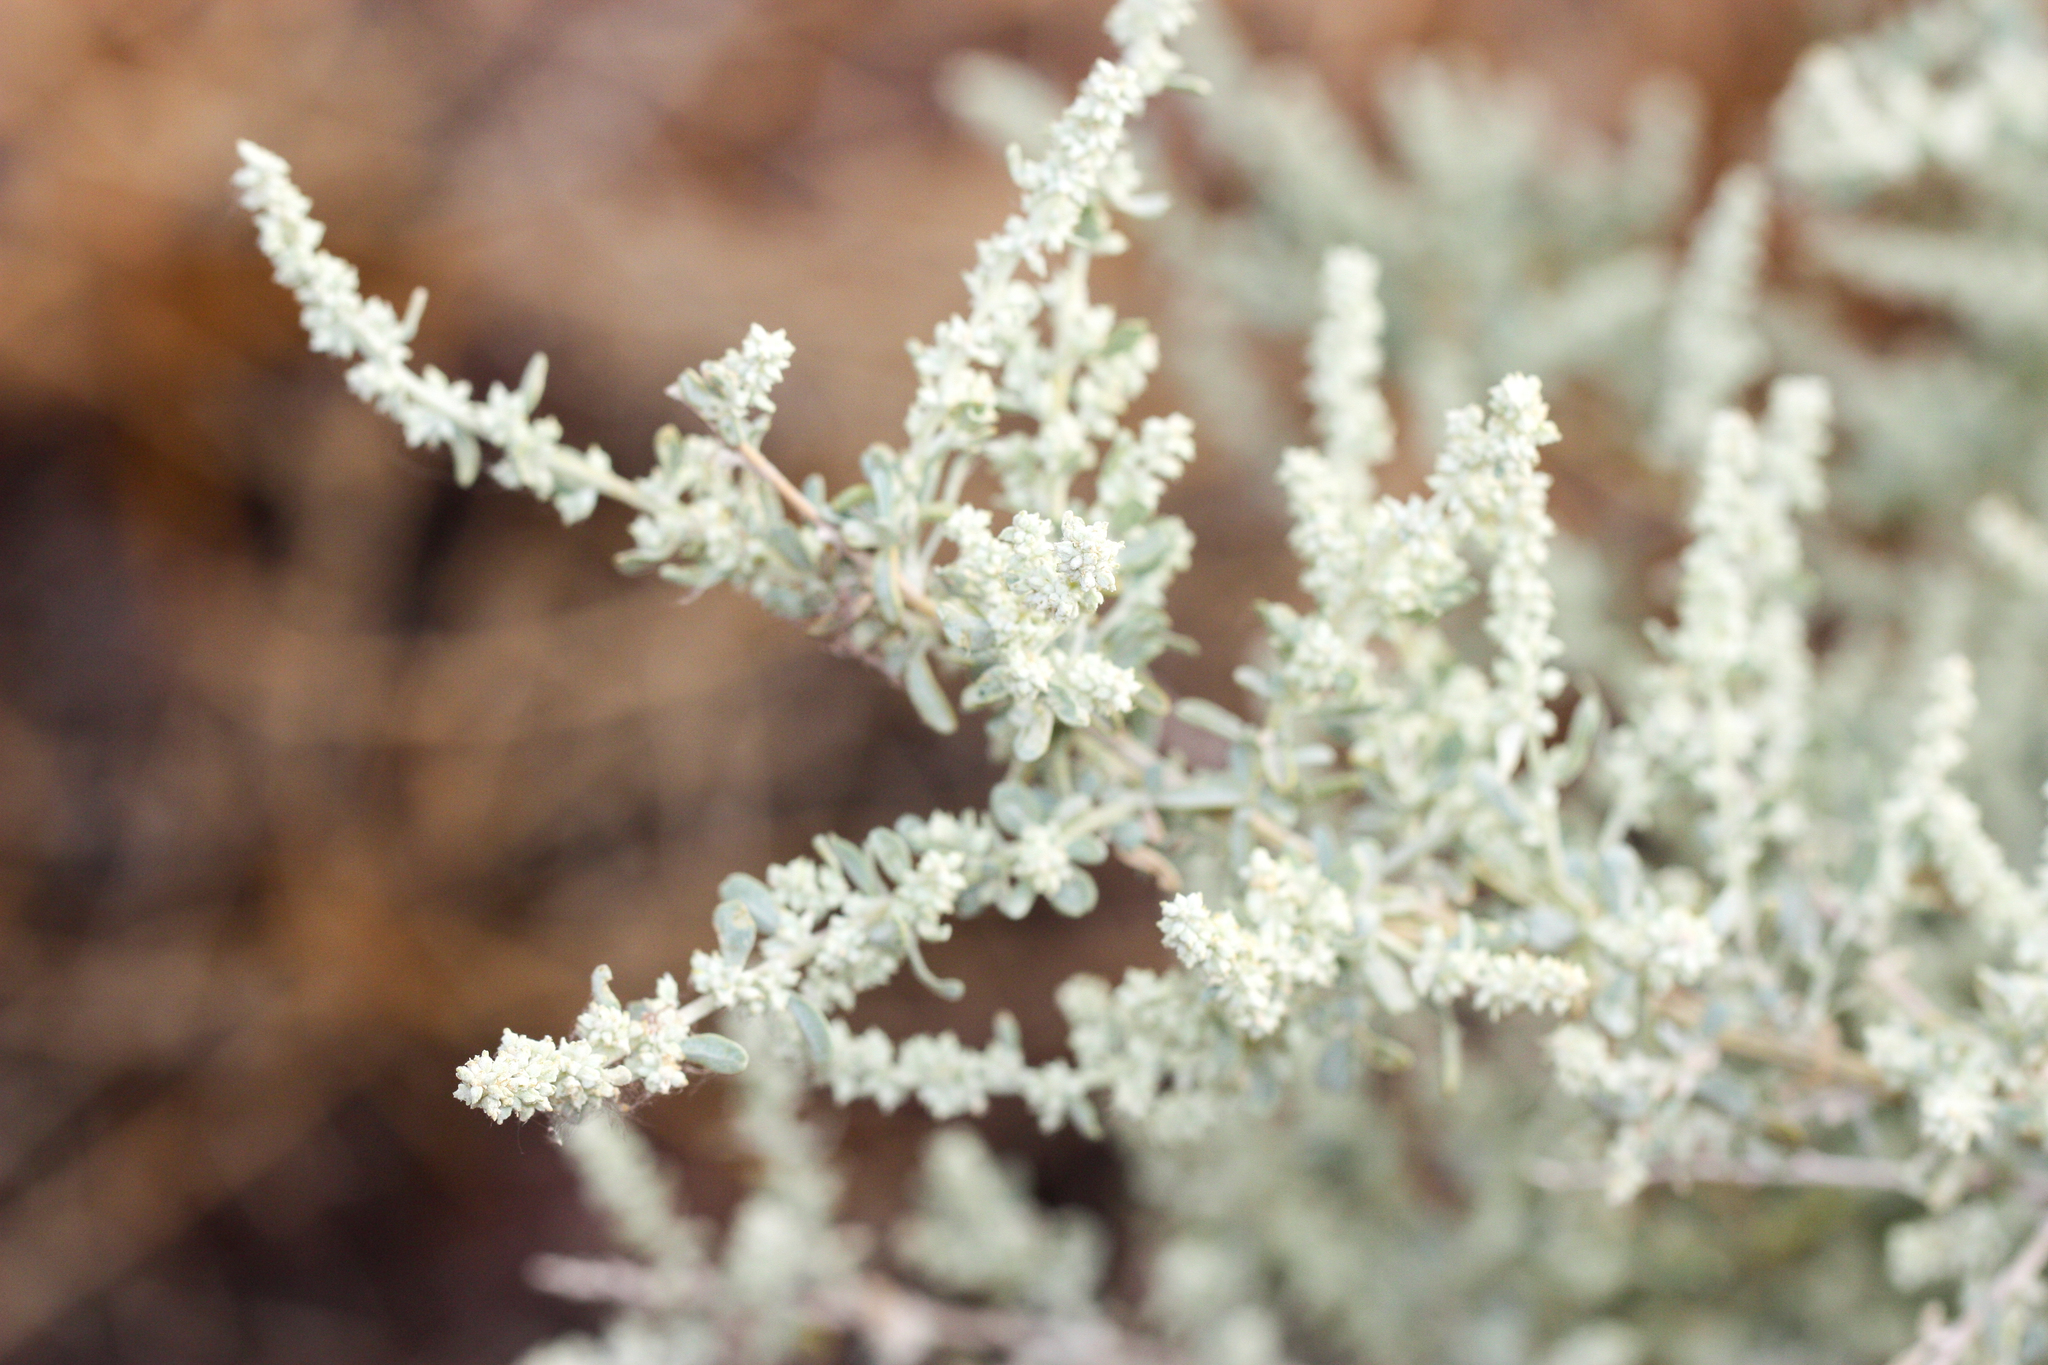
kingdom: Plantae
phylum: Tracheophyta
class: Magnoliopsida
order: Caryophyllales
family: Amaranthaceae
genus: Atriplex
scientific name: Atriplex canescens
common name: Four-wing saltbush
